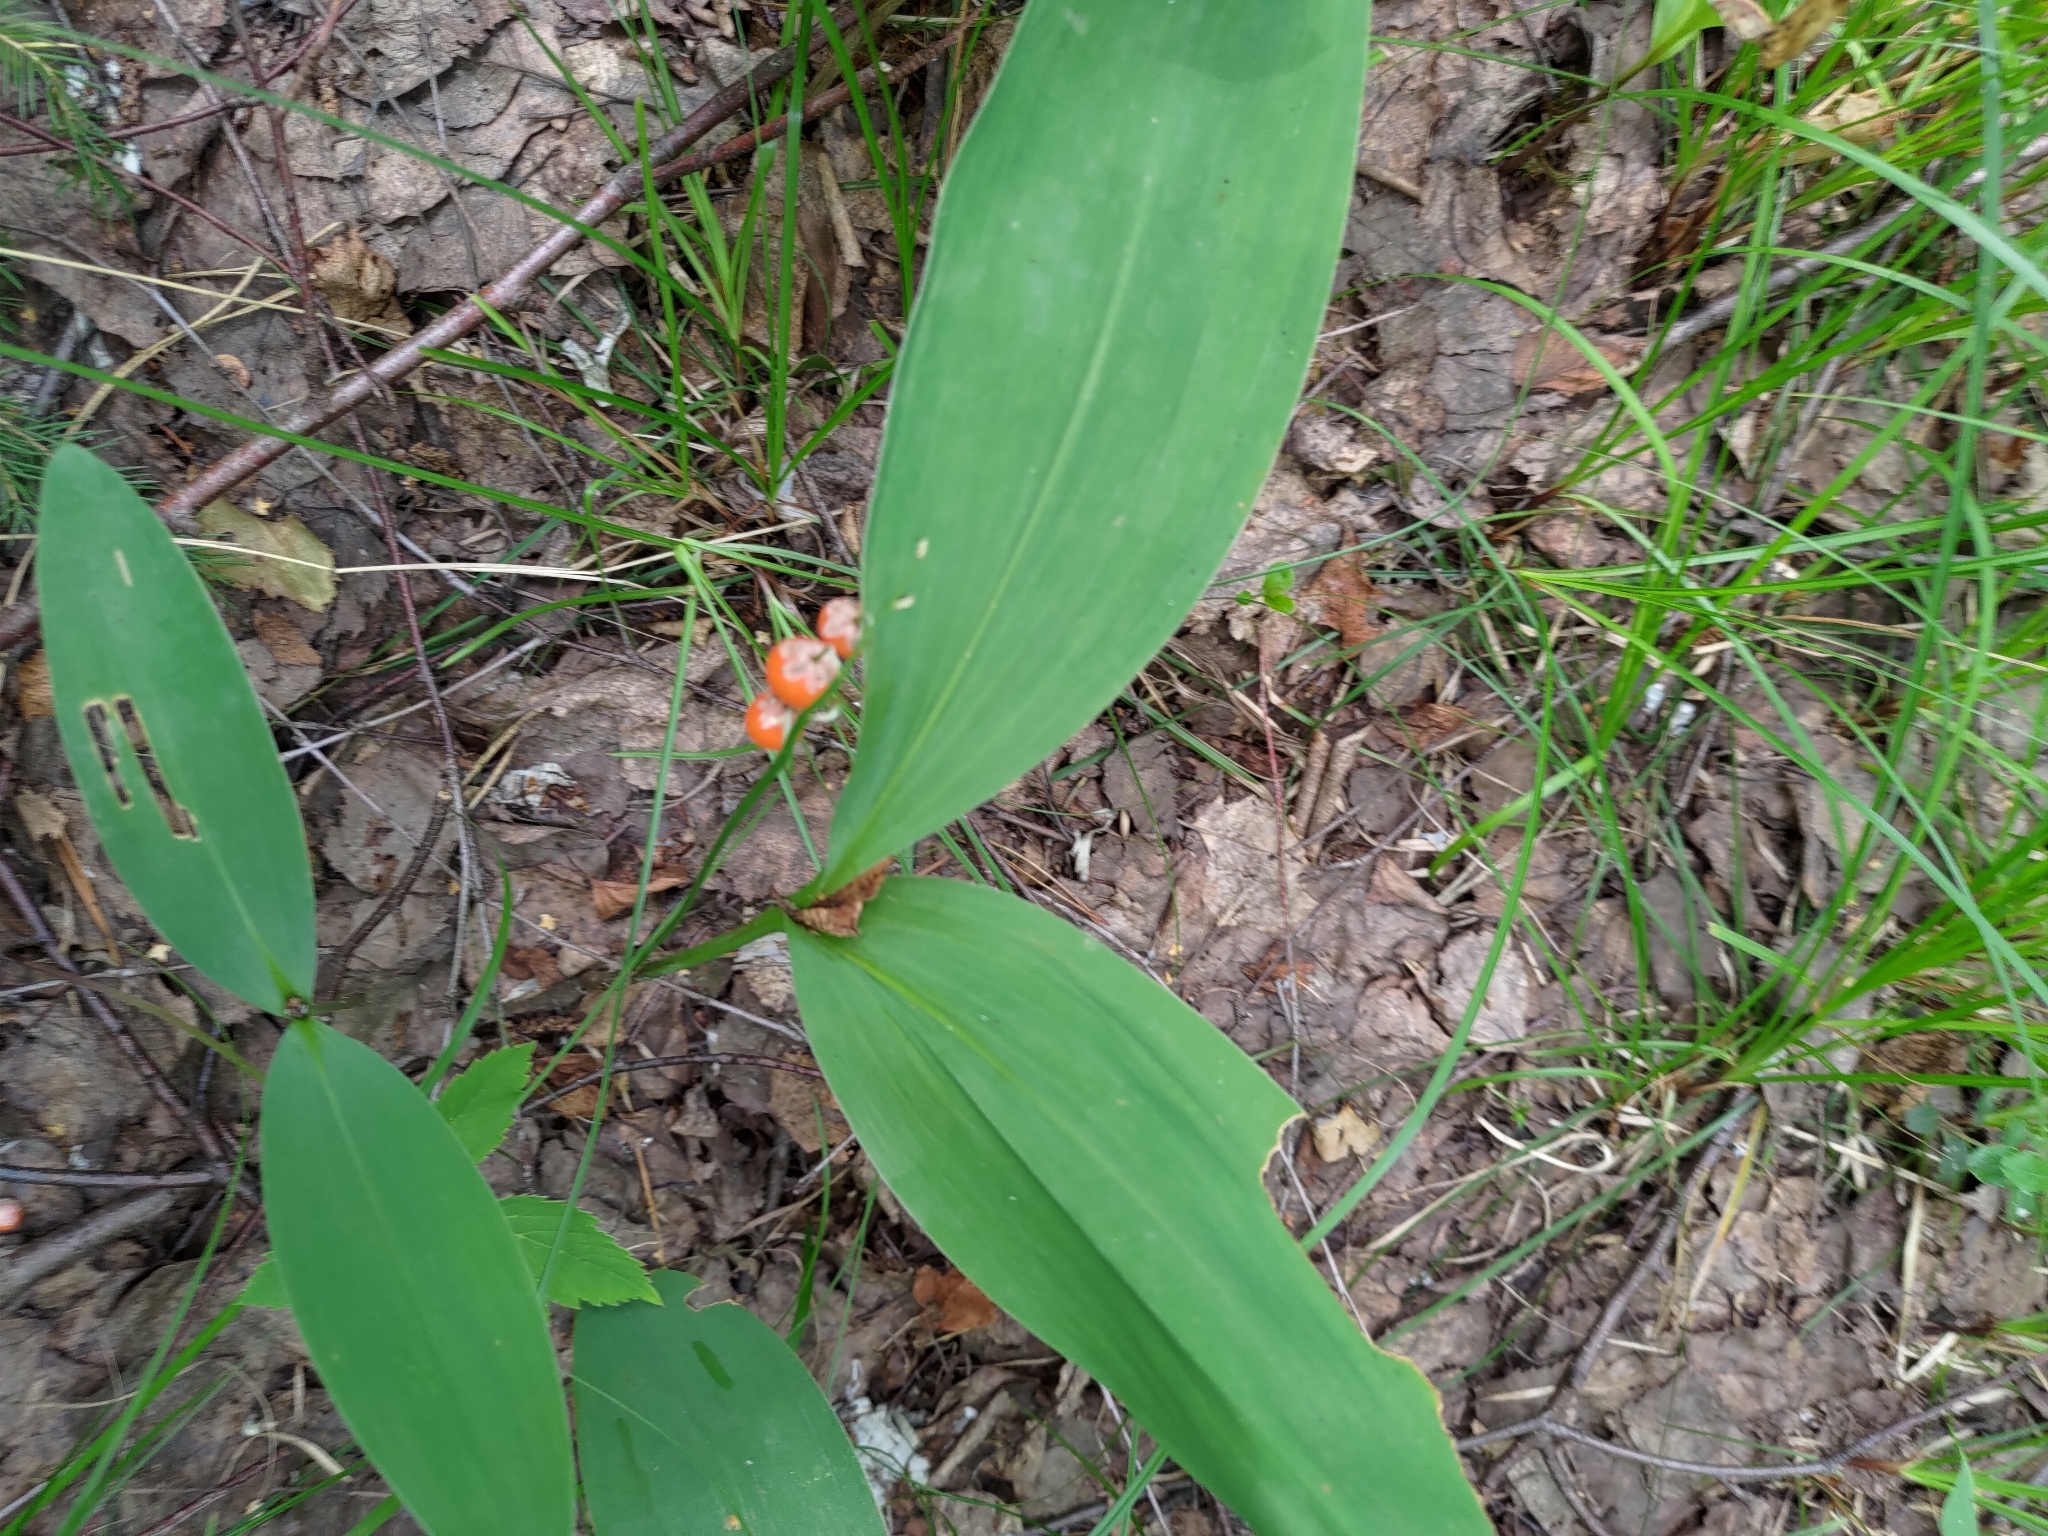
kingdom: Plantae
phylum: Tracheophyta
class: Liliopsida
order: Asparagales
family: Asparagaceae
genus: Convallaria
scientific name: Convallaria majalis
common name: Lily-of-the-valley
